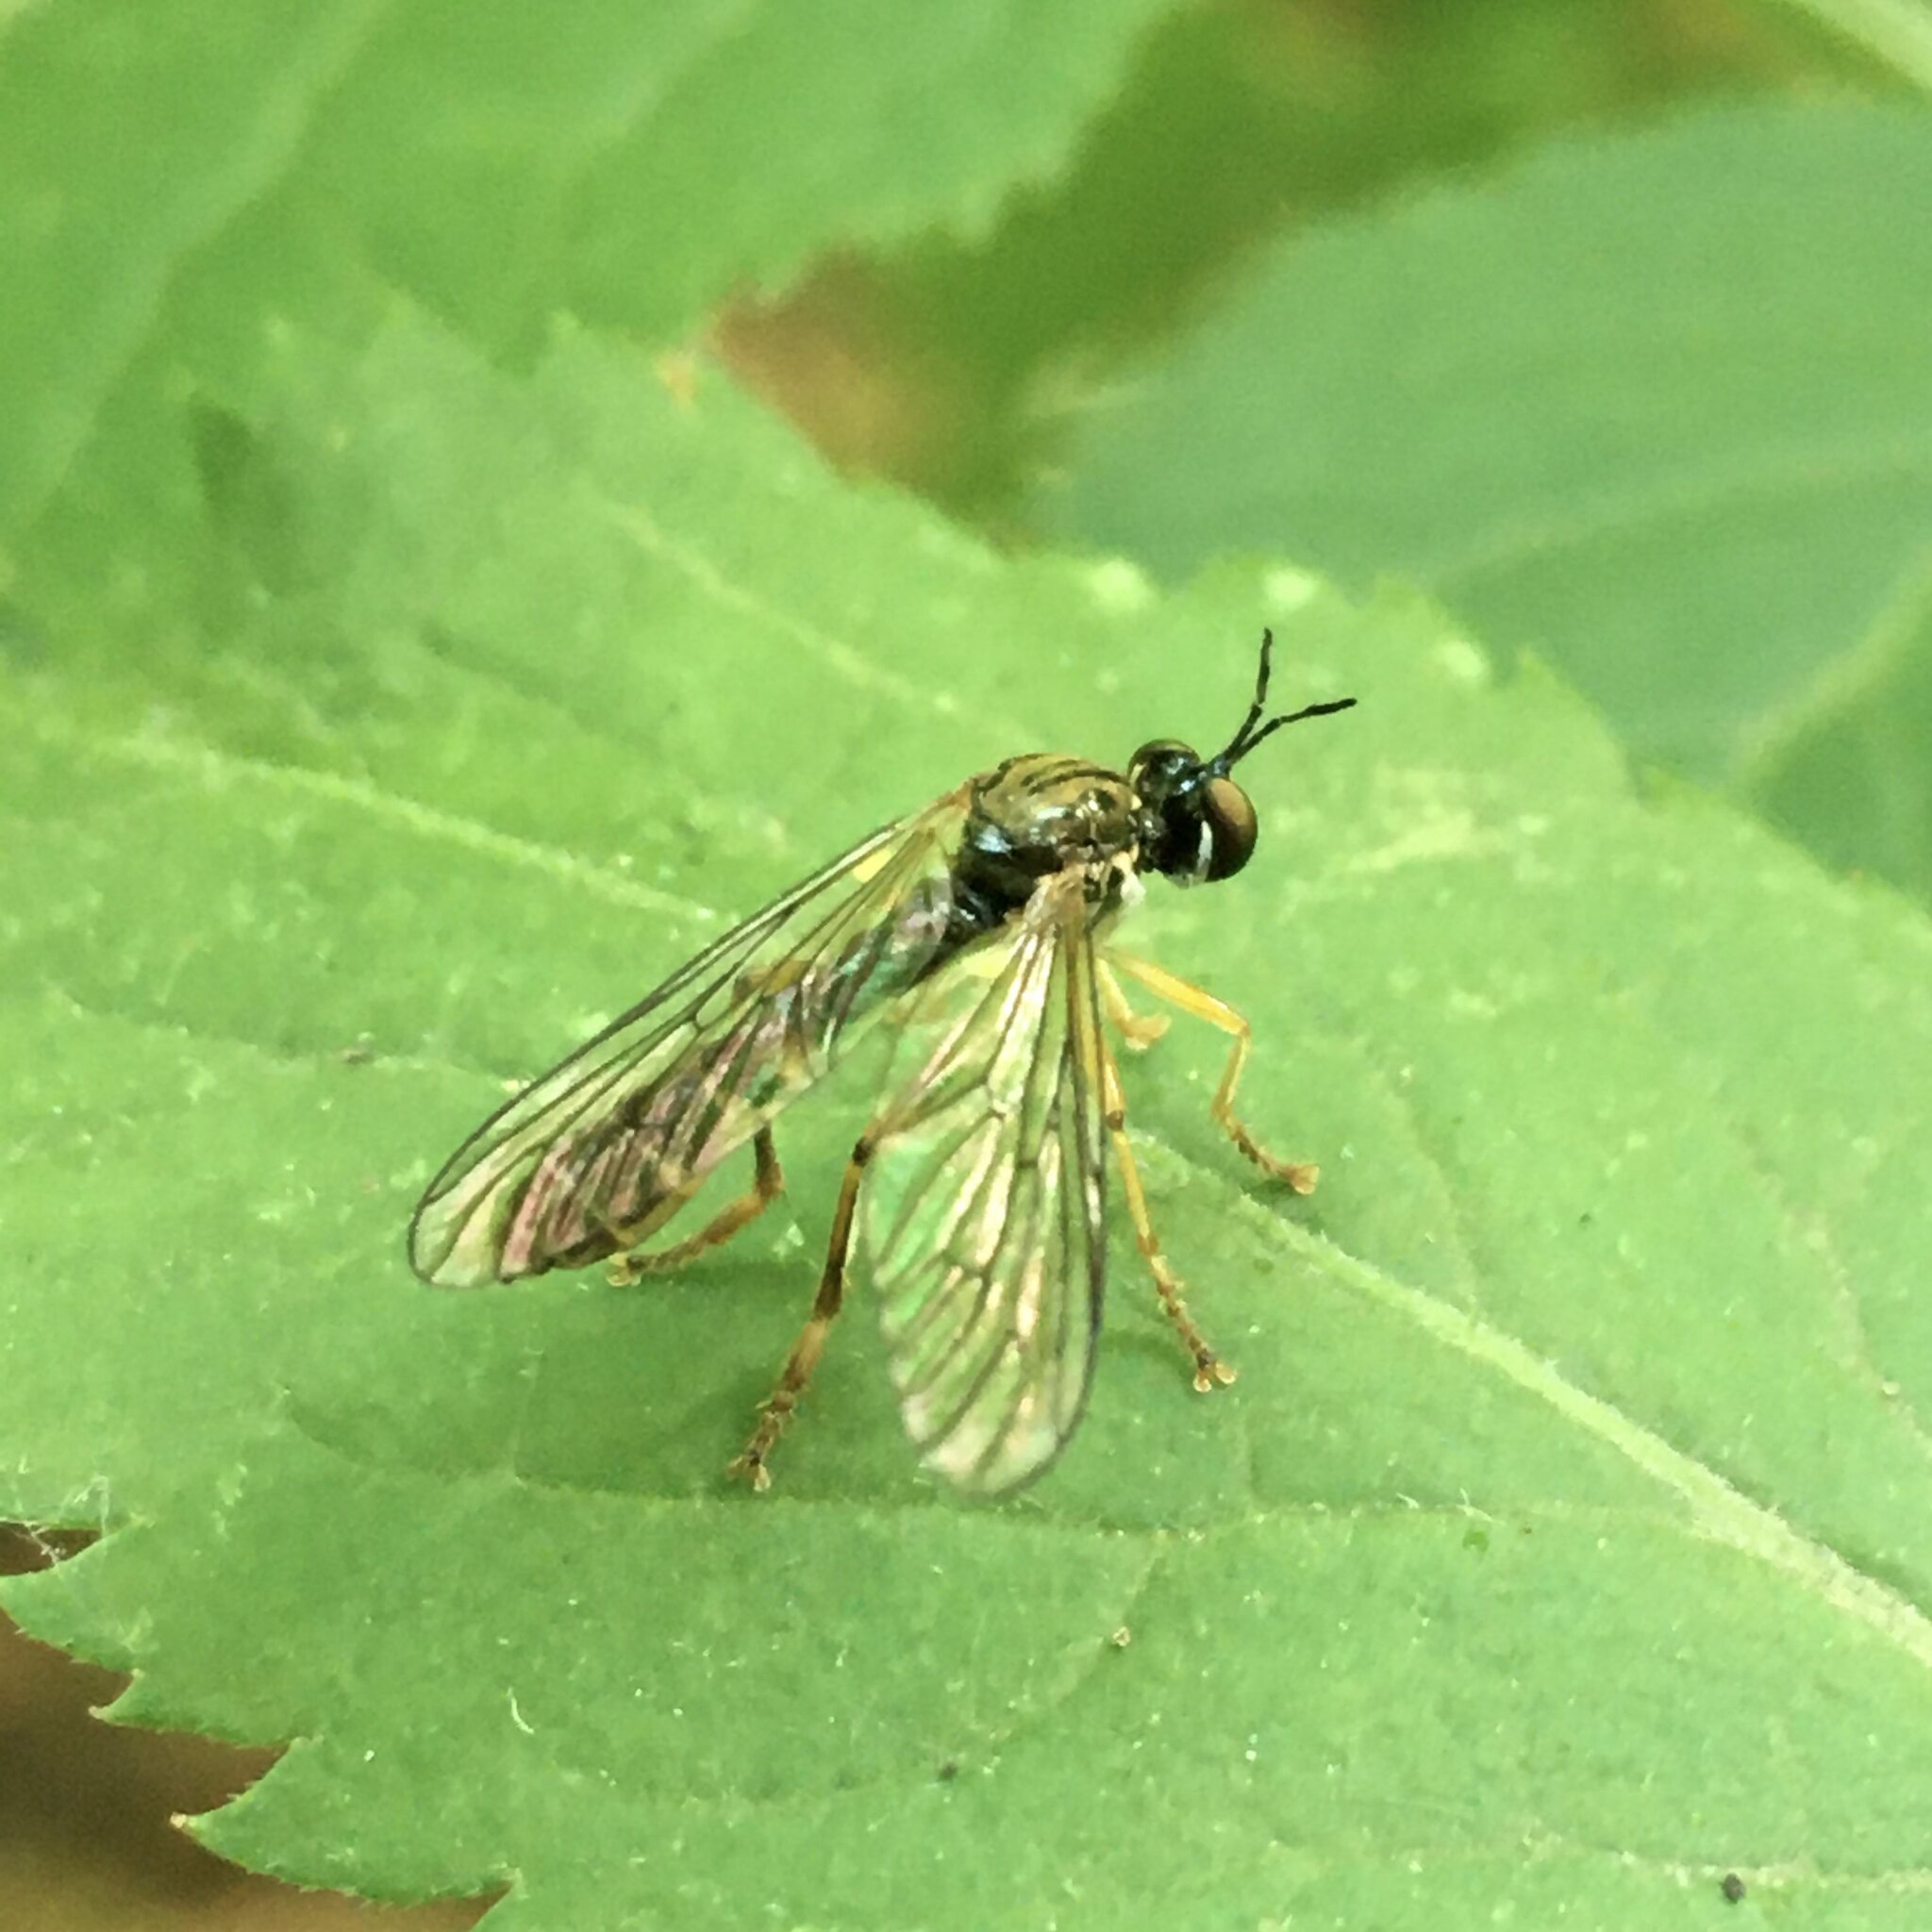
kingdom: Animalia
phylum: Arthropoda
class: Insecta
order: Diptera
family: Asilidae
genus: Dioctria
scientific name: Dioctria linearis
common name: Small yellow-legged robberfly
